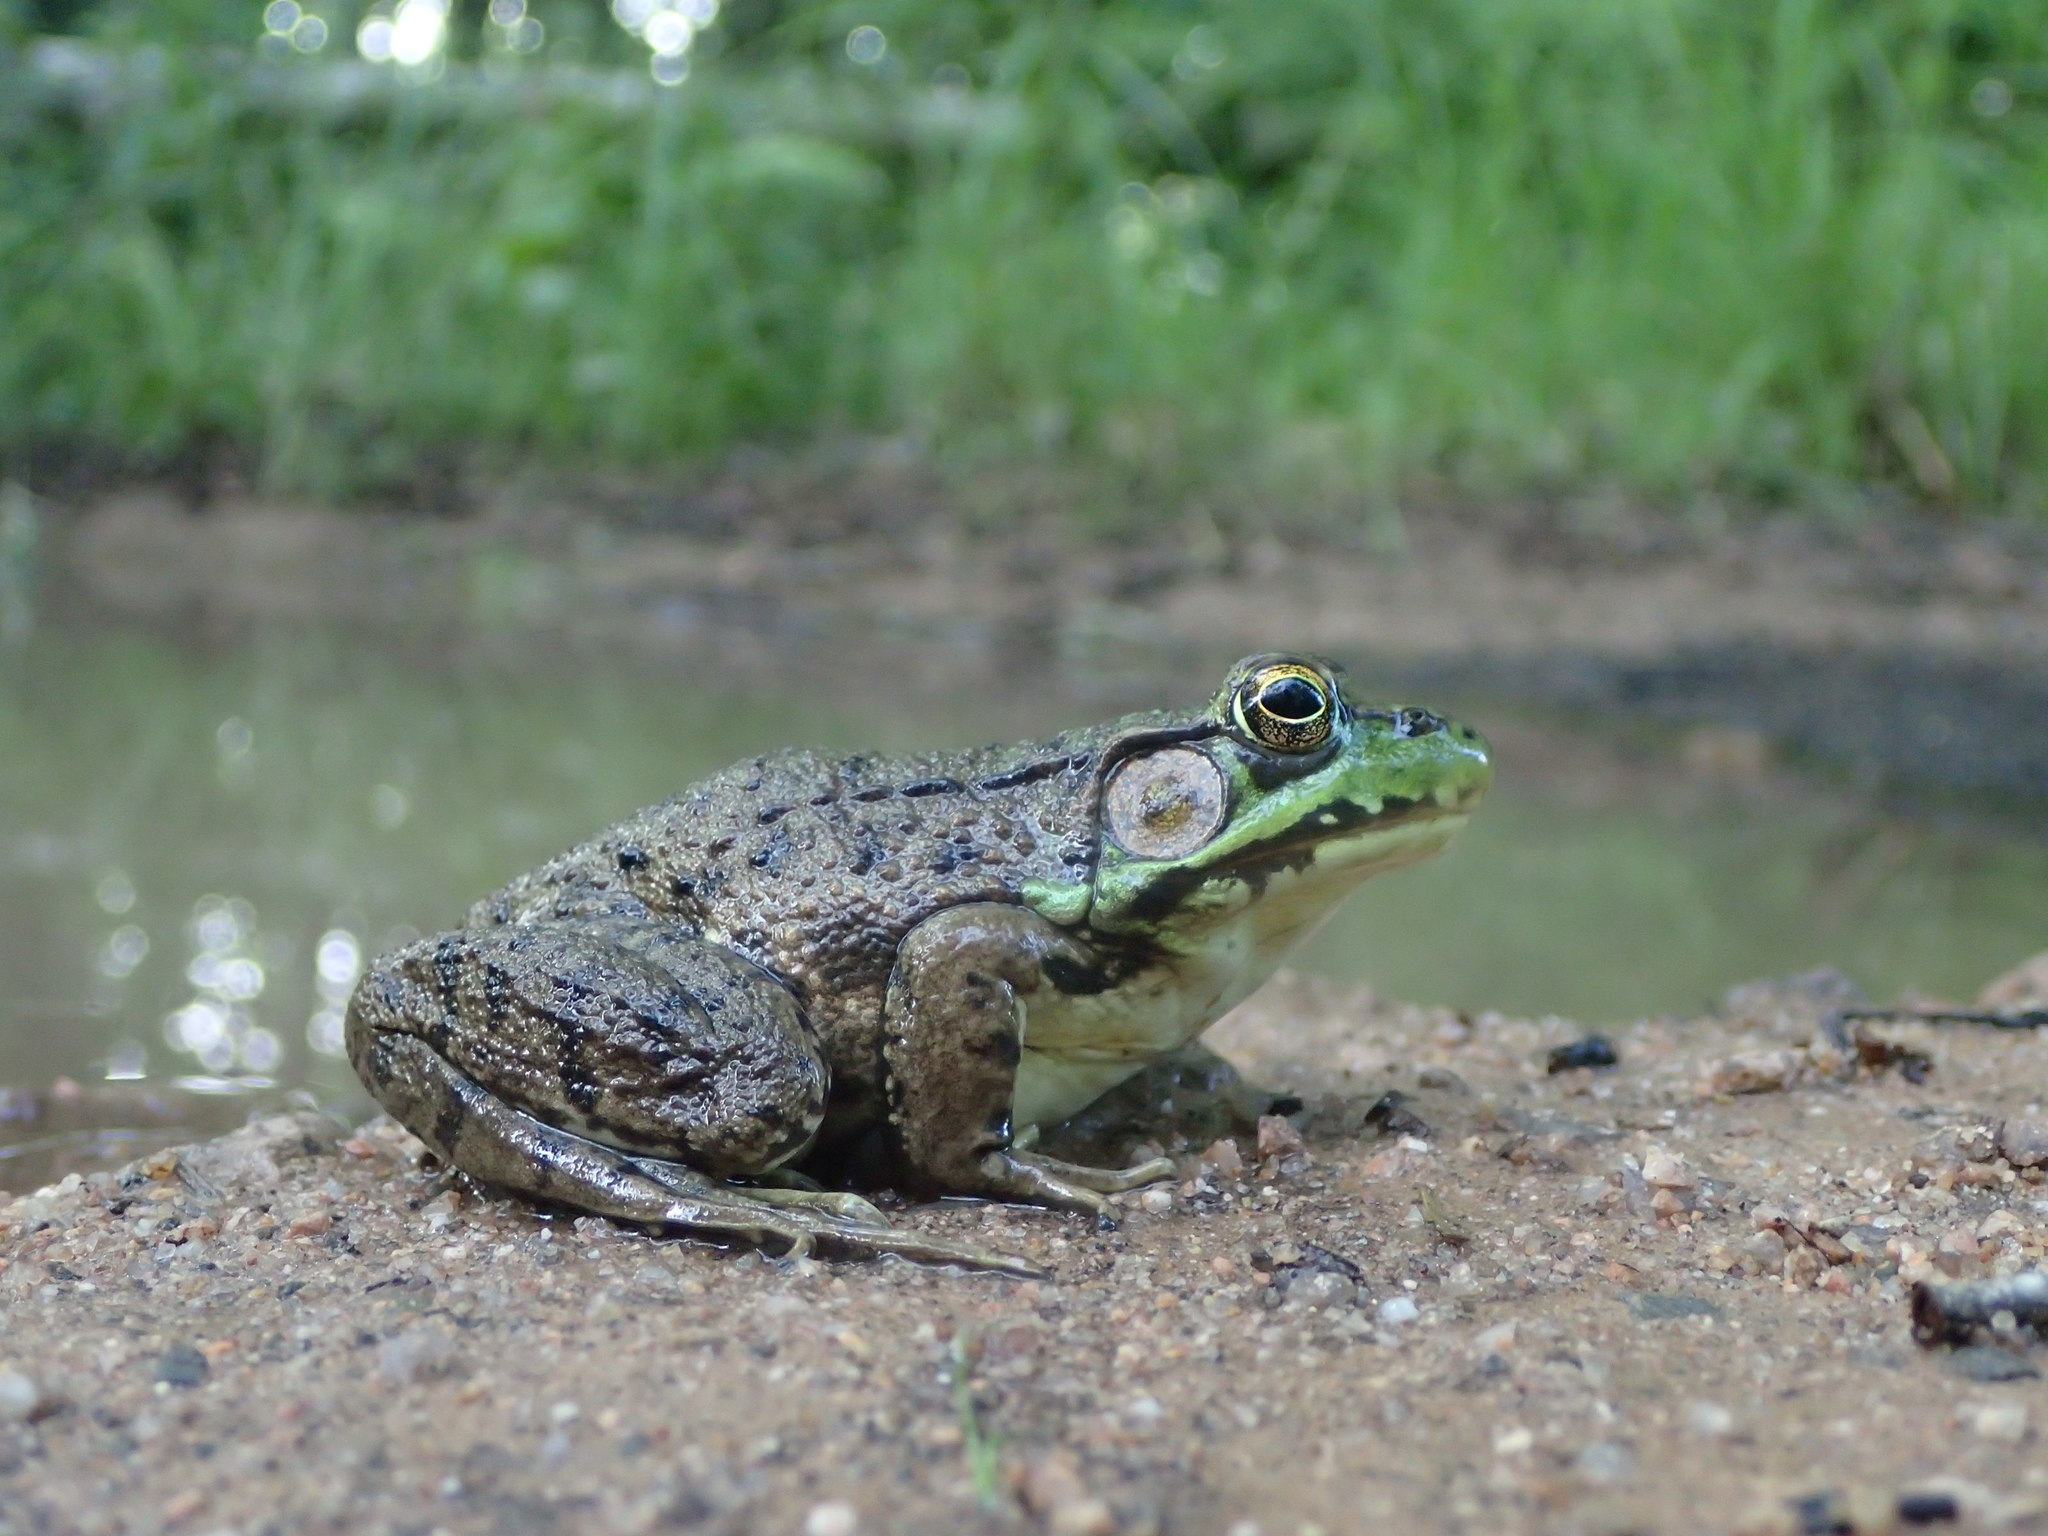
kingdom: Animalia
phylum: Chordata
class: Amphibia
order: Anura
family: Ranidae
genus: Lithobates
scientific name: Lithobates clamitans
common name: Green frog
